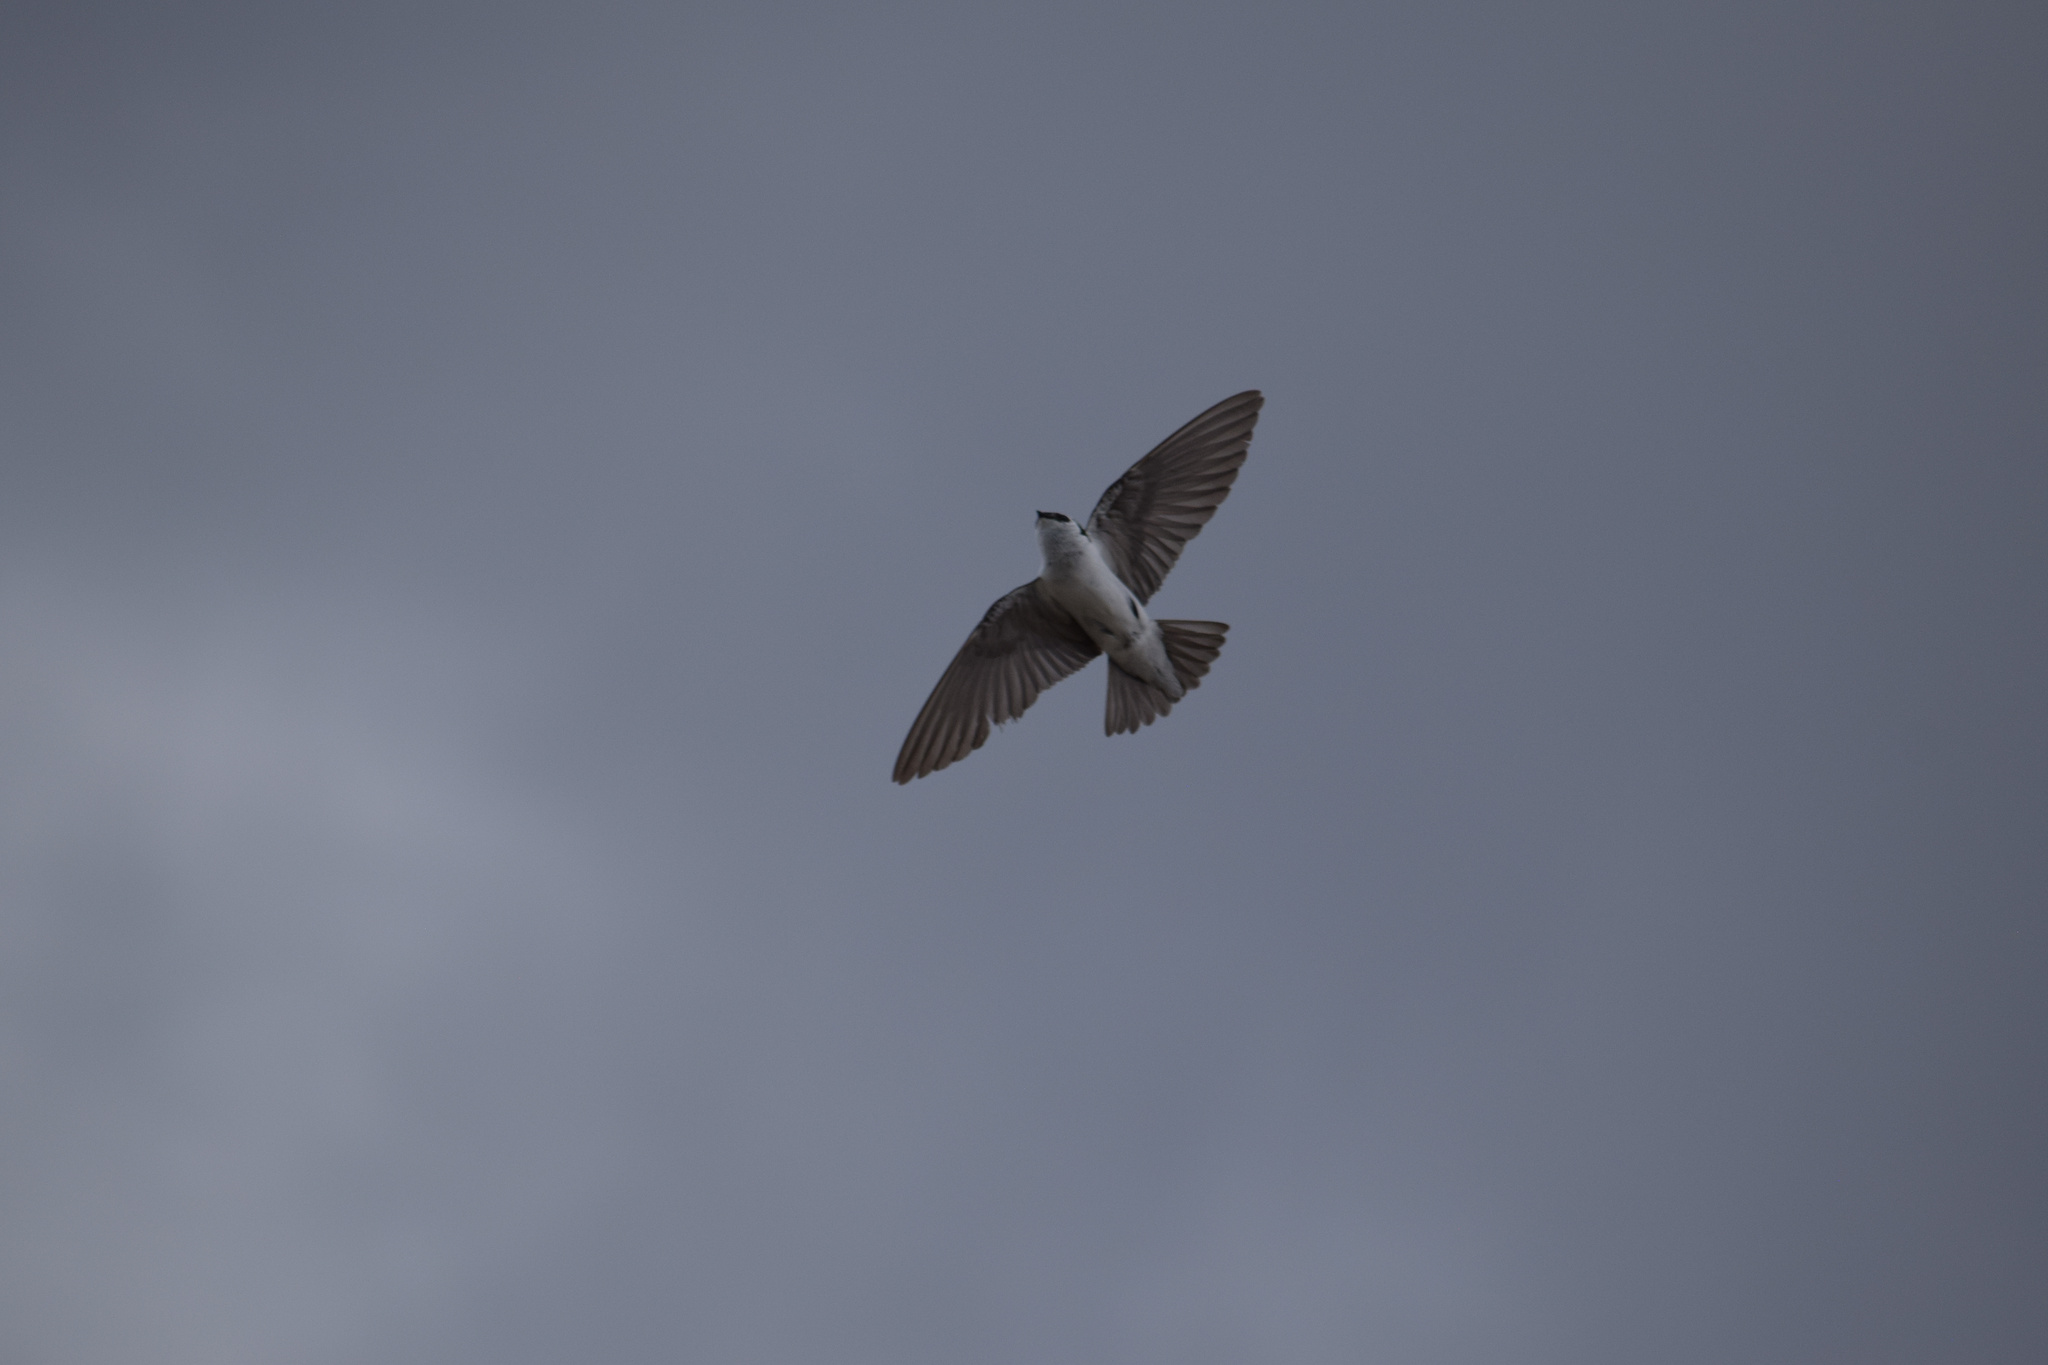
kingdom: Animalia
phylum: Chordata
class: Aves
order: Passeriformes
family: Hirundinidae
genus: Tachycineta
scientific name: Tachycineta thalassina
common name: Violet-green swallow
